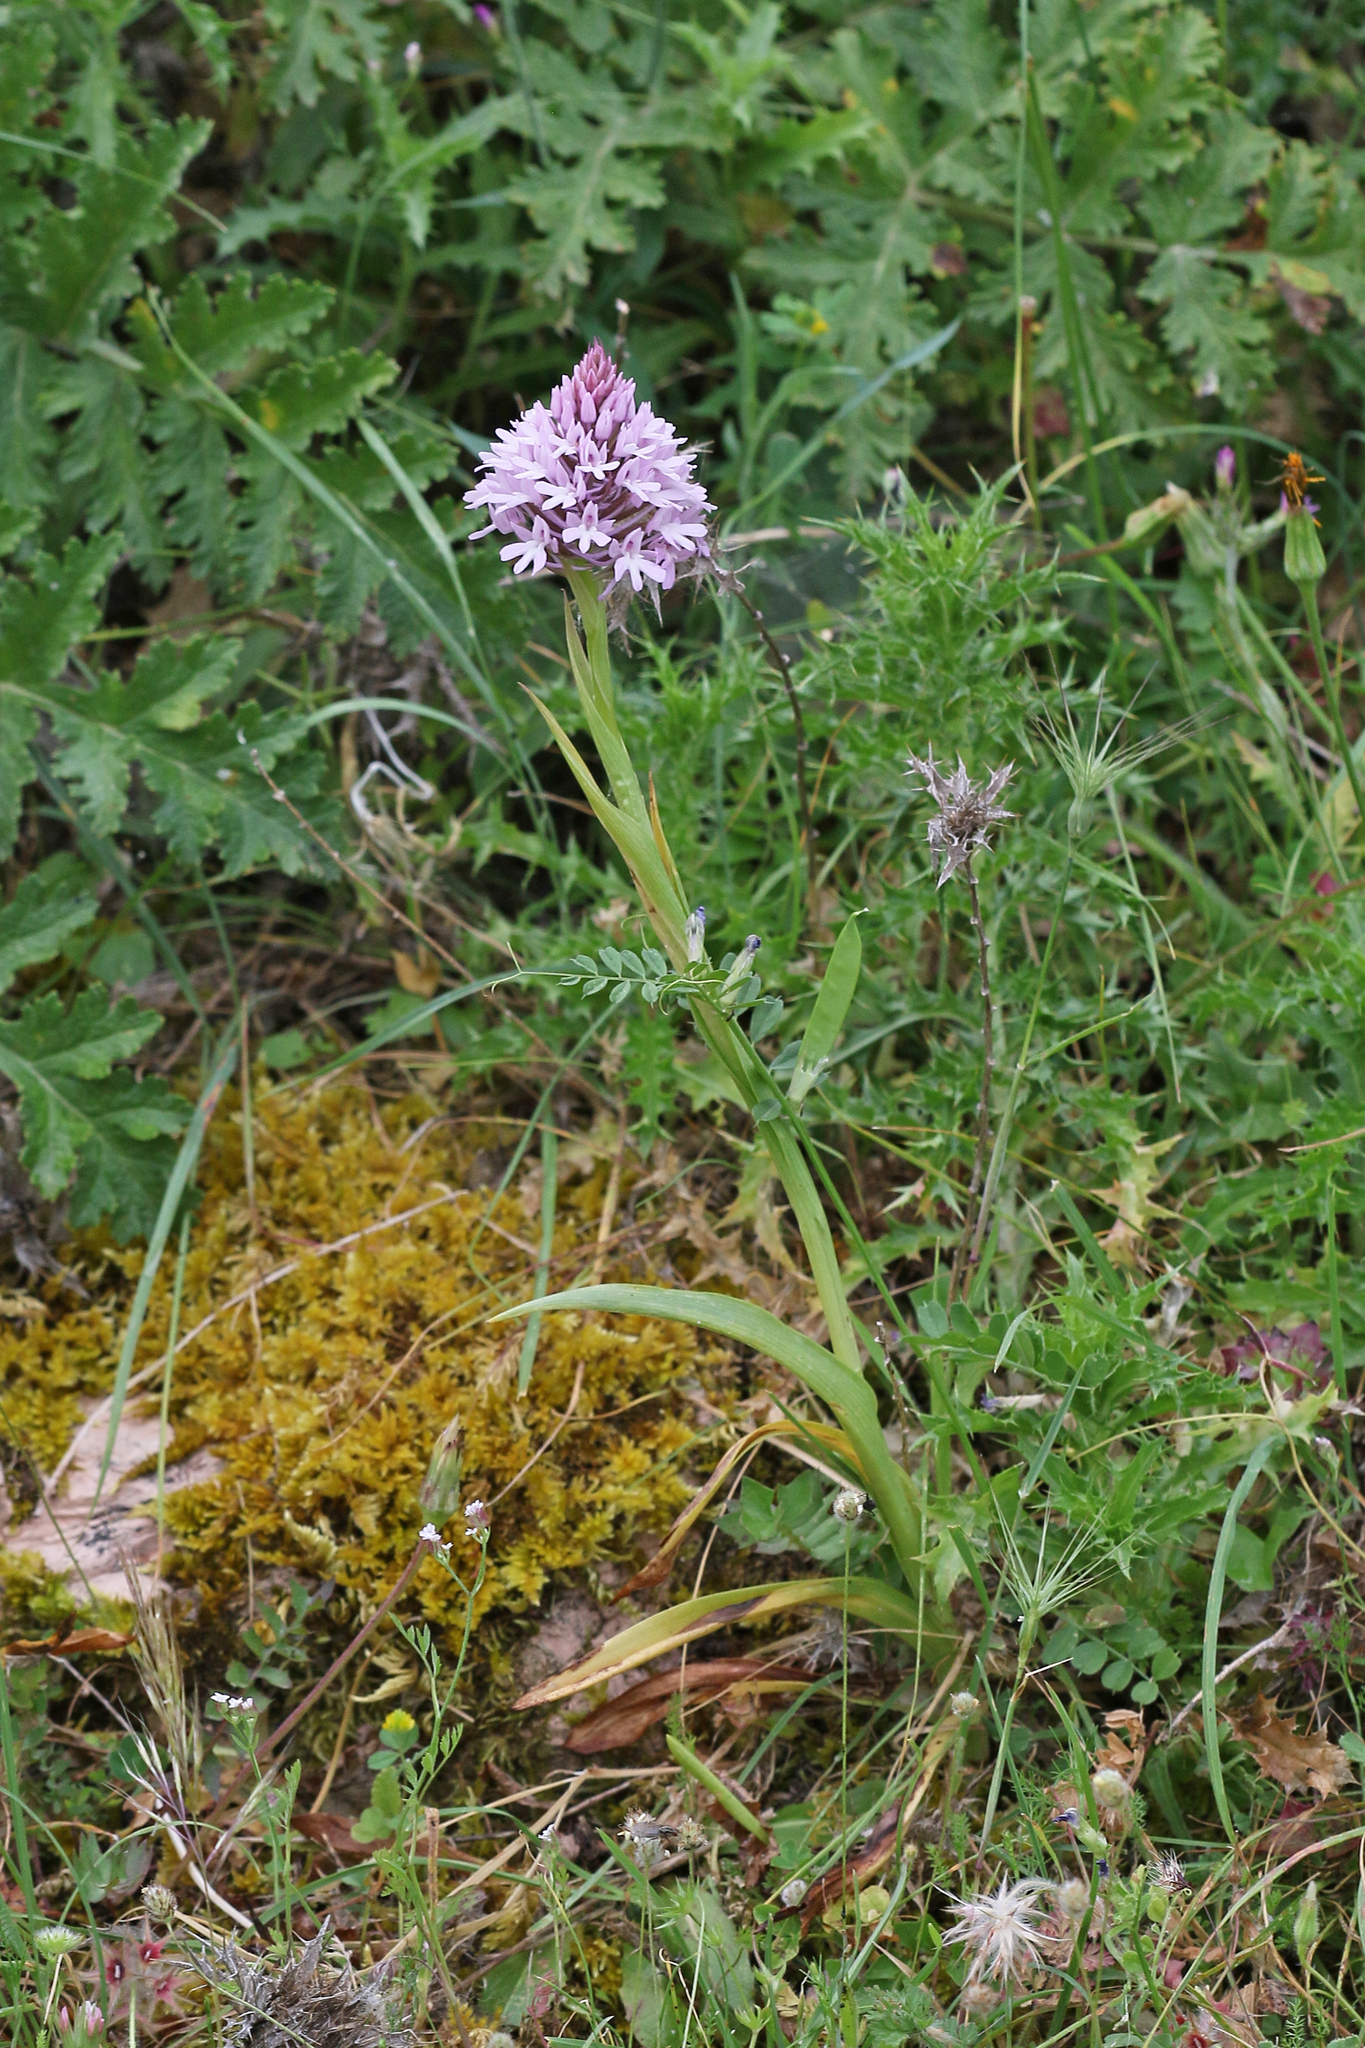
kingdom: Plantae
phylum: Tracheophyta
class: Liliopsida
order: Asparagales
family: Orchidaceae
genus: Anacamptis
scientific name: Anacamptis pyramidalis
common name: Pyramidal orchid
